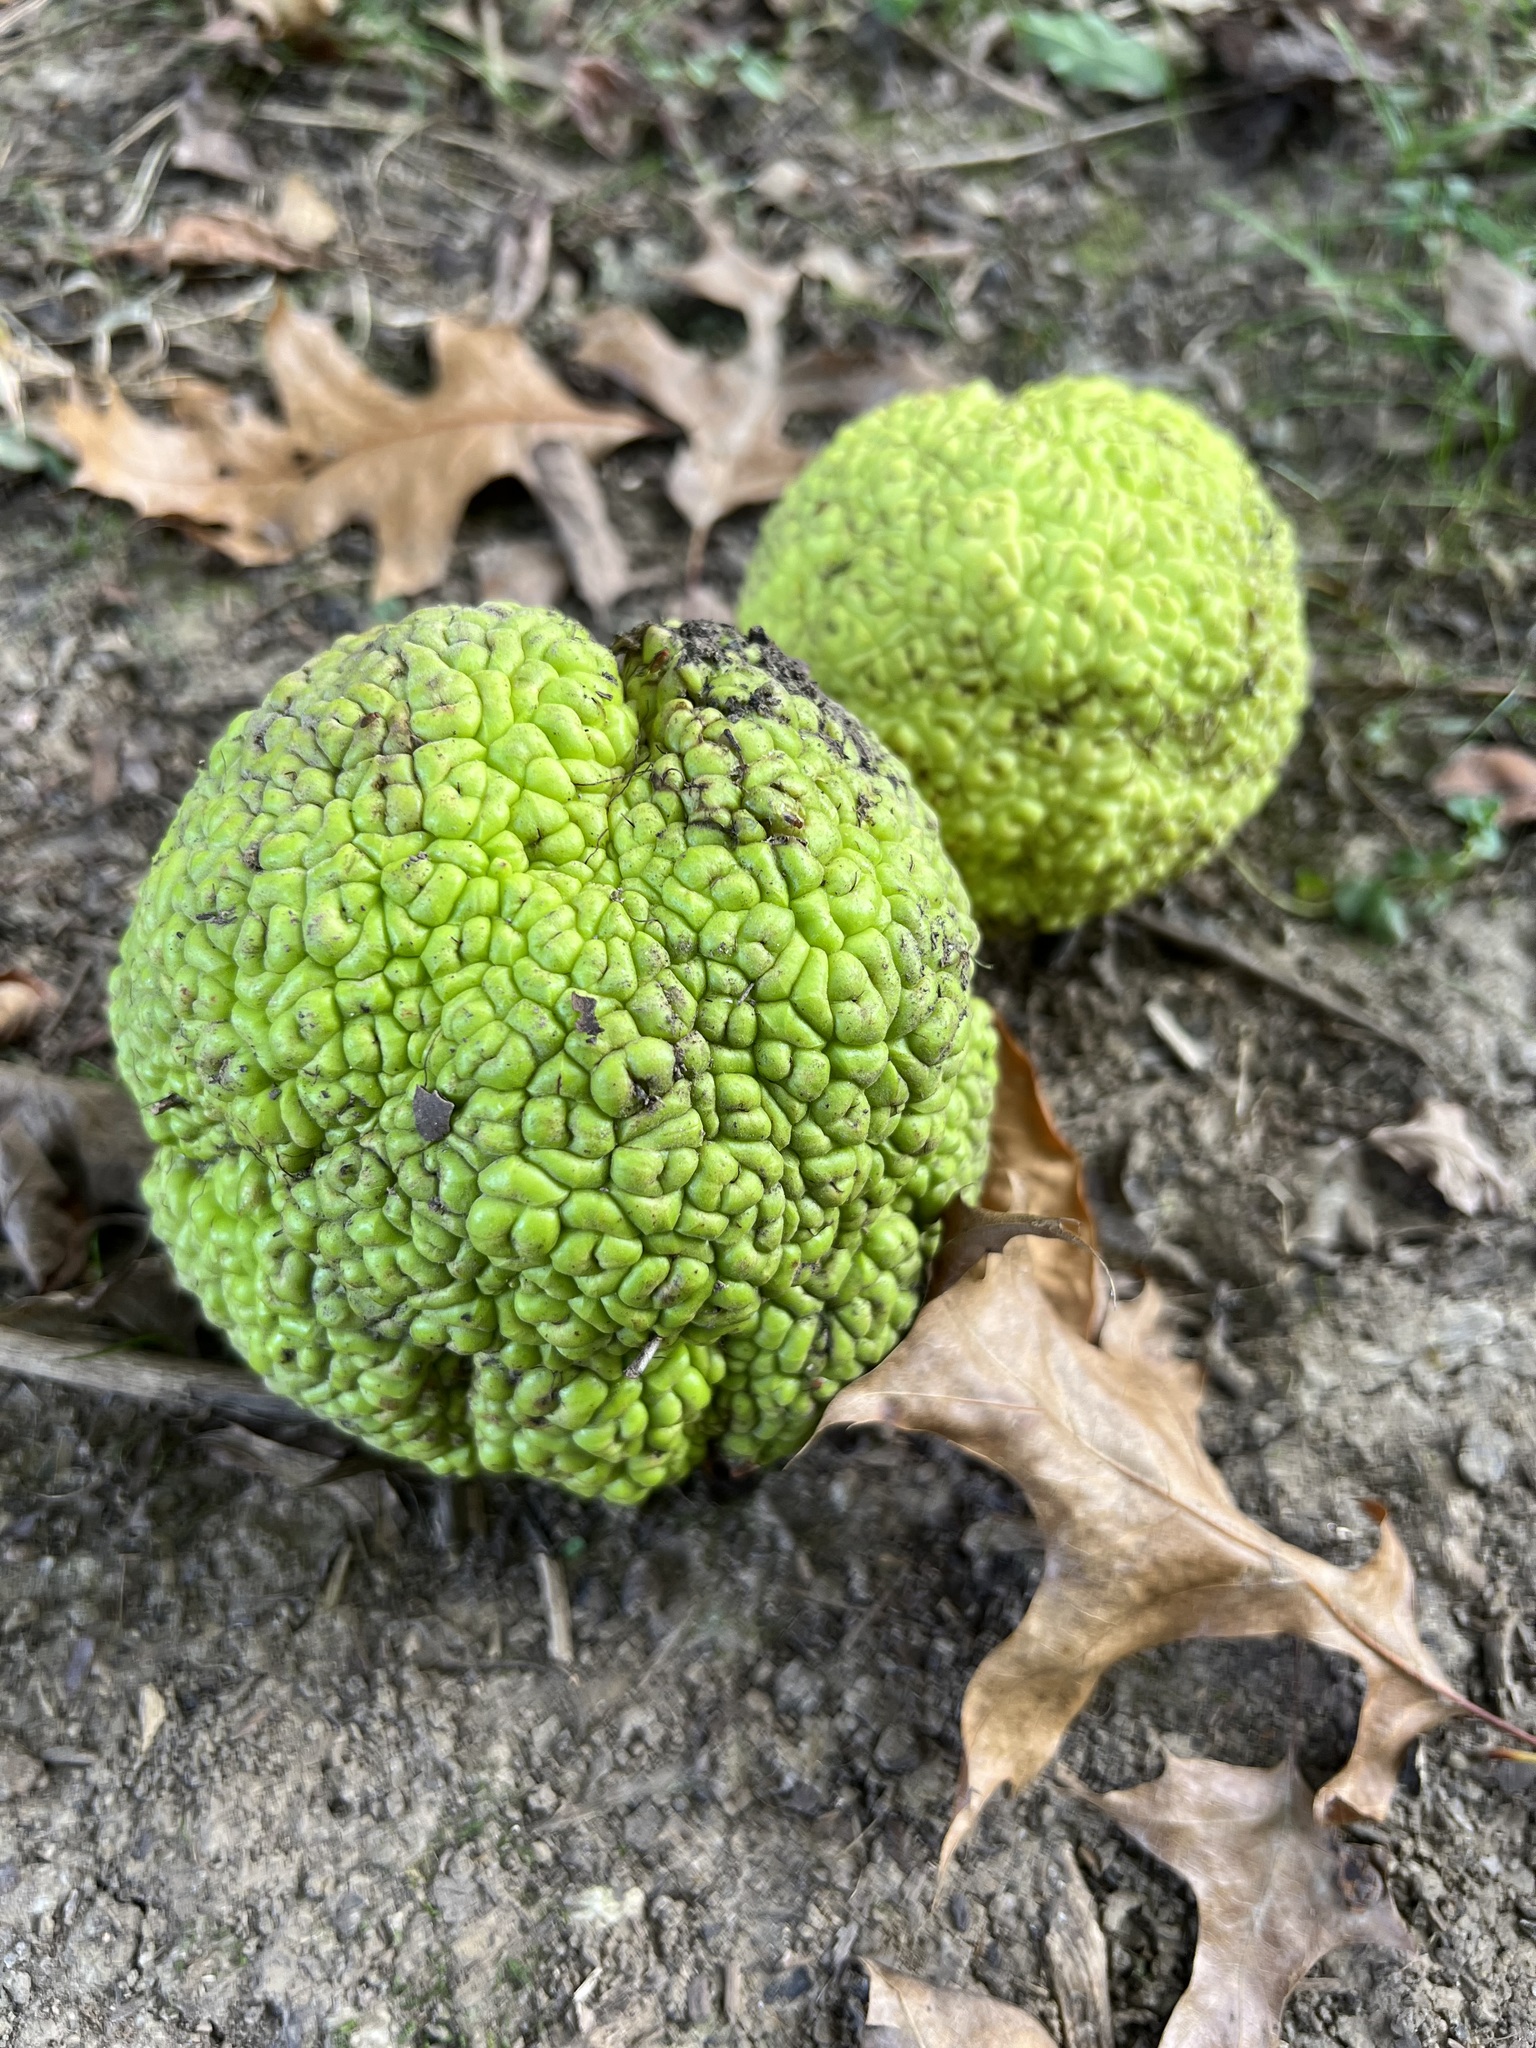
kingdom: Plantae
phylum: Tracheophyta
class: Magnoliopsida
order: Rosales
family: Moraceae
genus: Maclura
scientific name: Maclura pomifera
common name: Osage-orange
